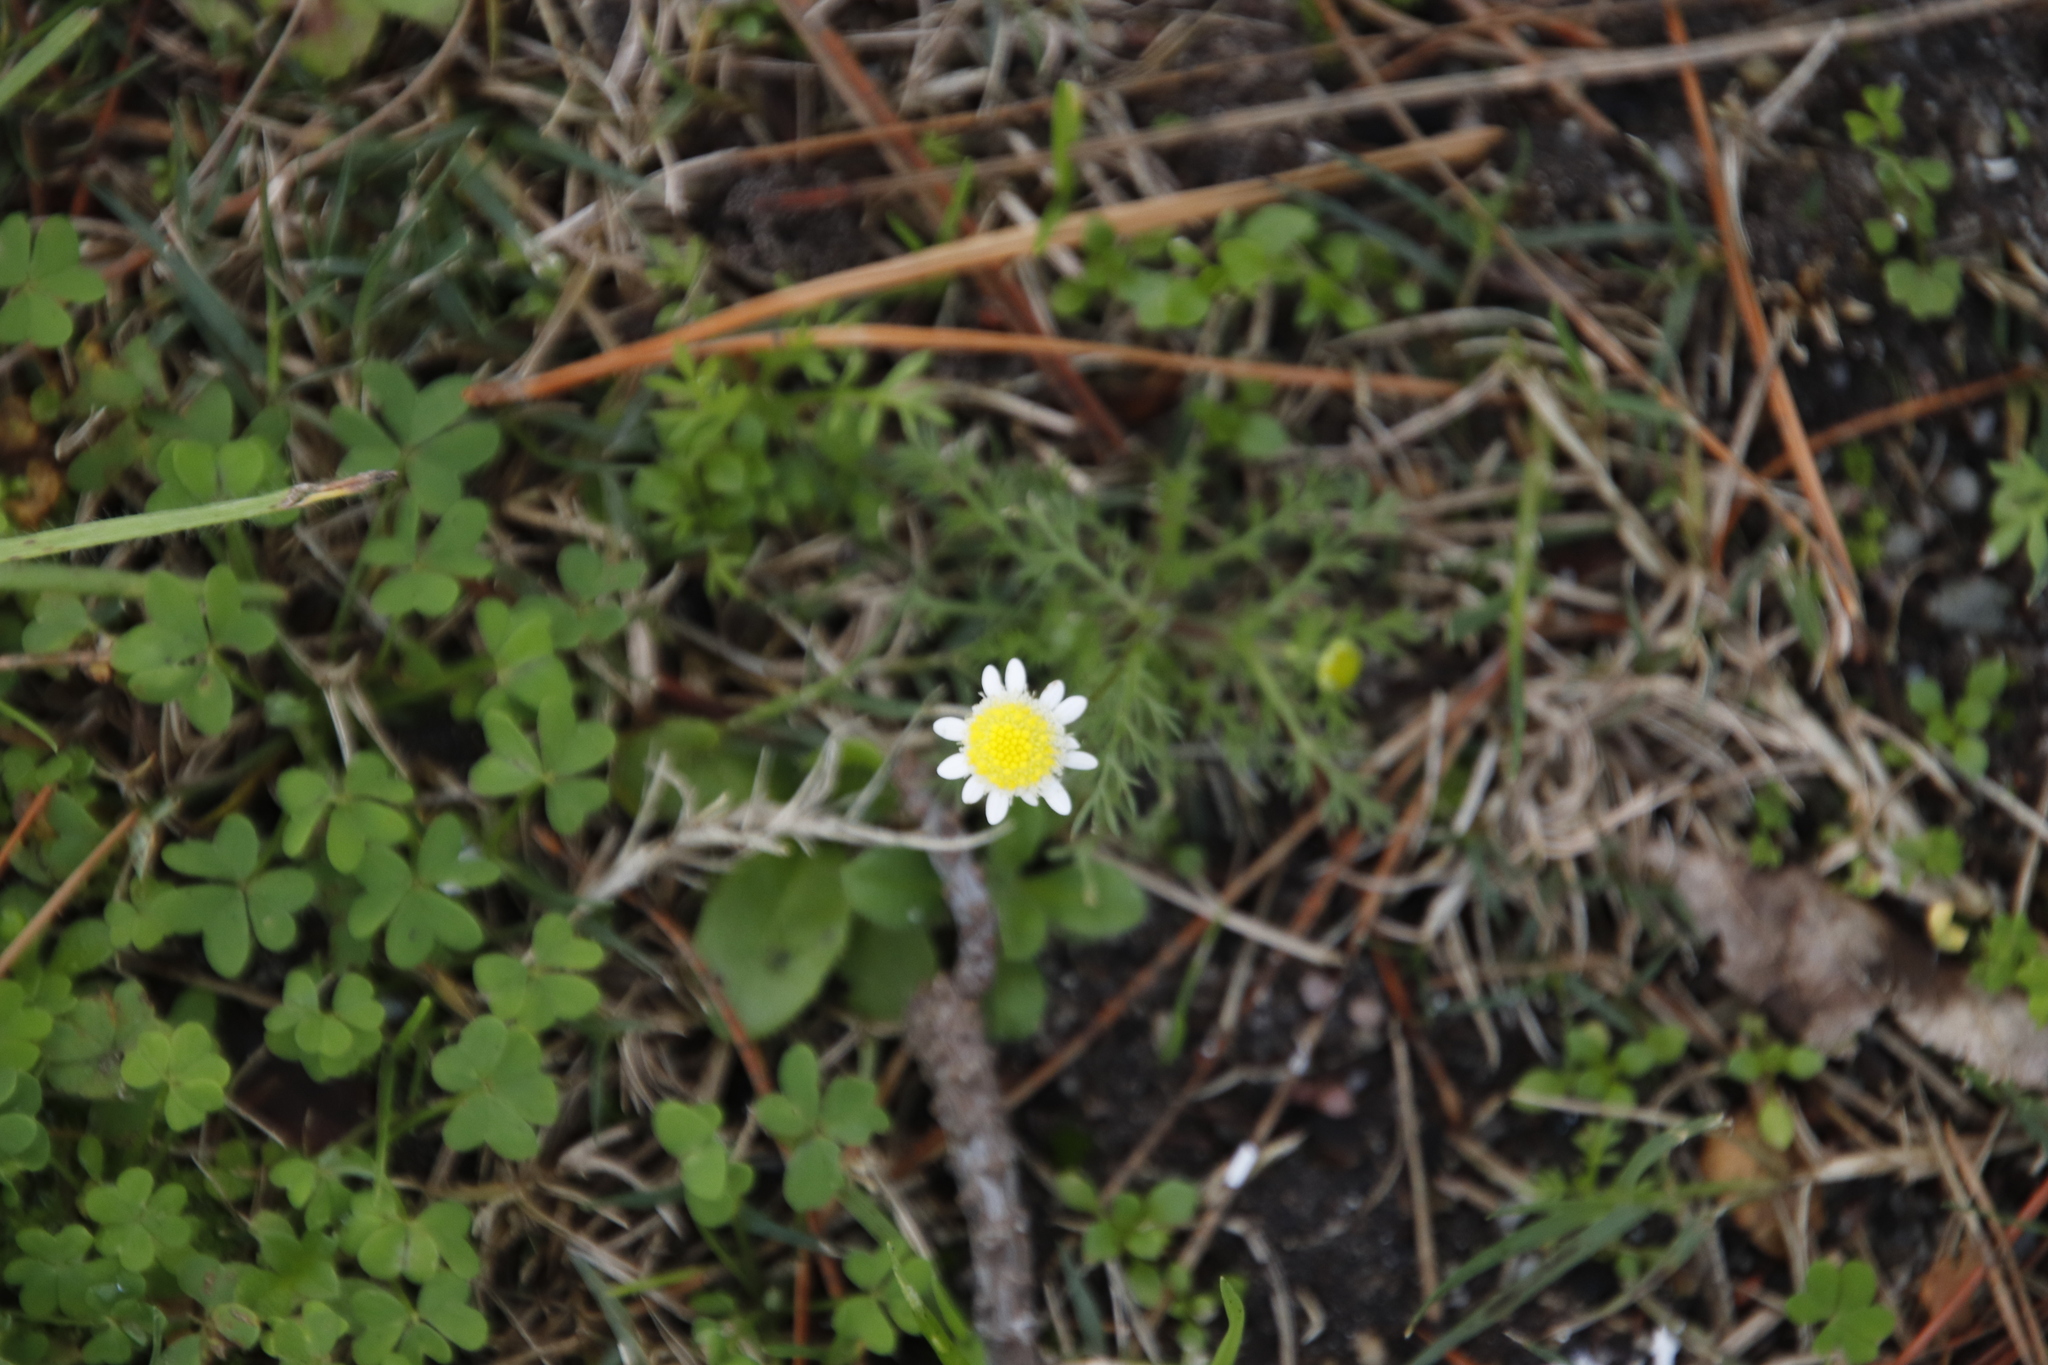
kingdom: Plantae
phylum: Tracheophyta
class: Magnoliopsida
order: Asterales
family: Asteraceae
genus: Cotula
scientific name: Cotula turbinata
